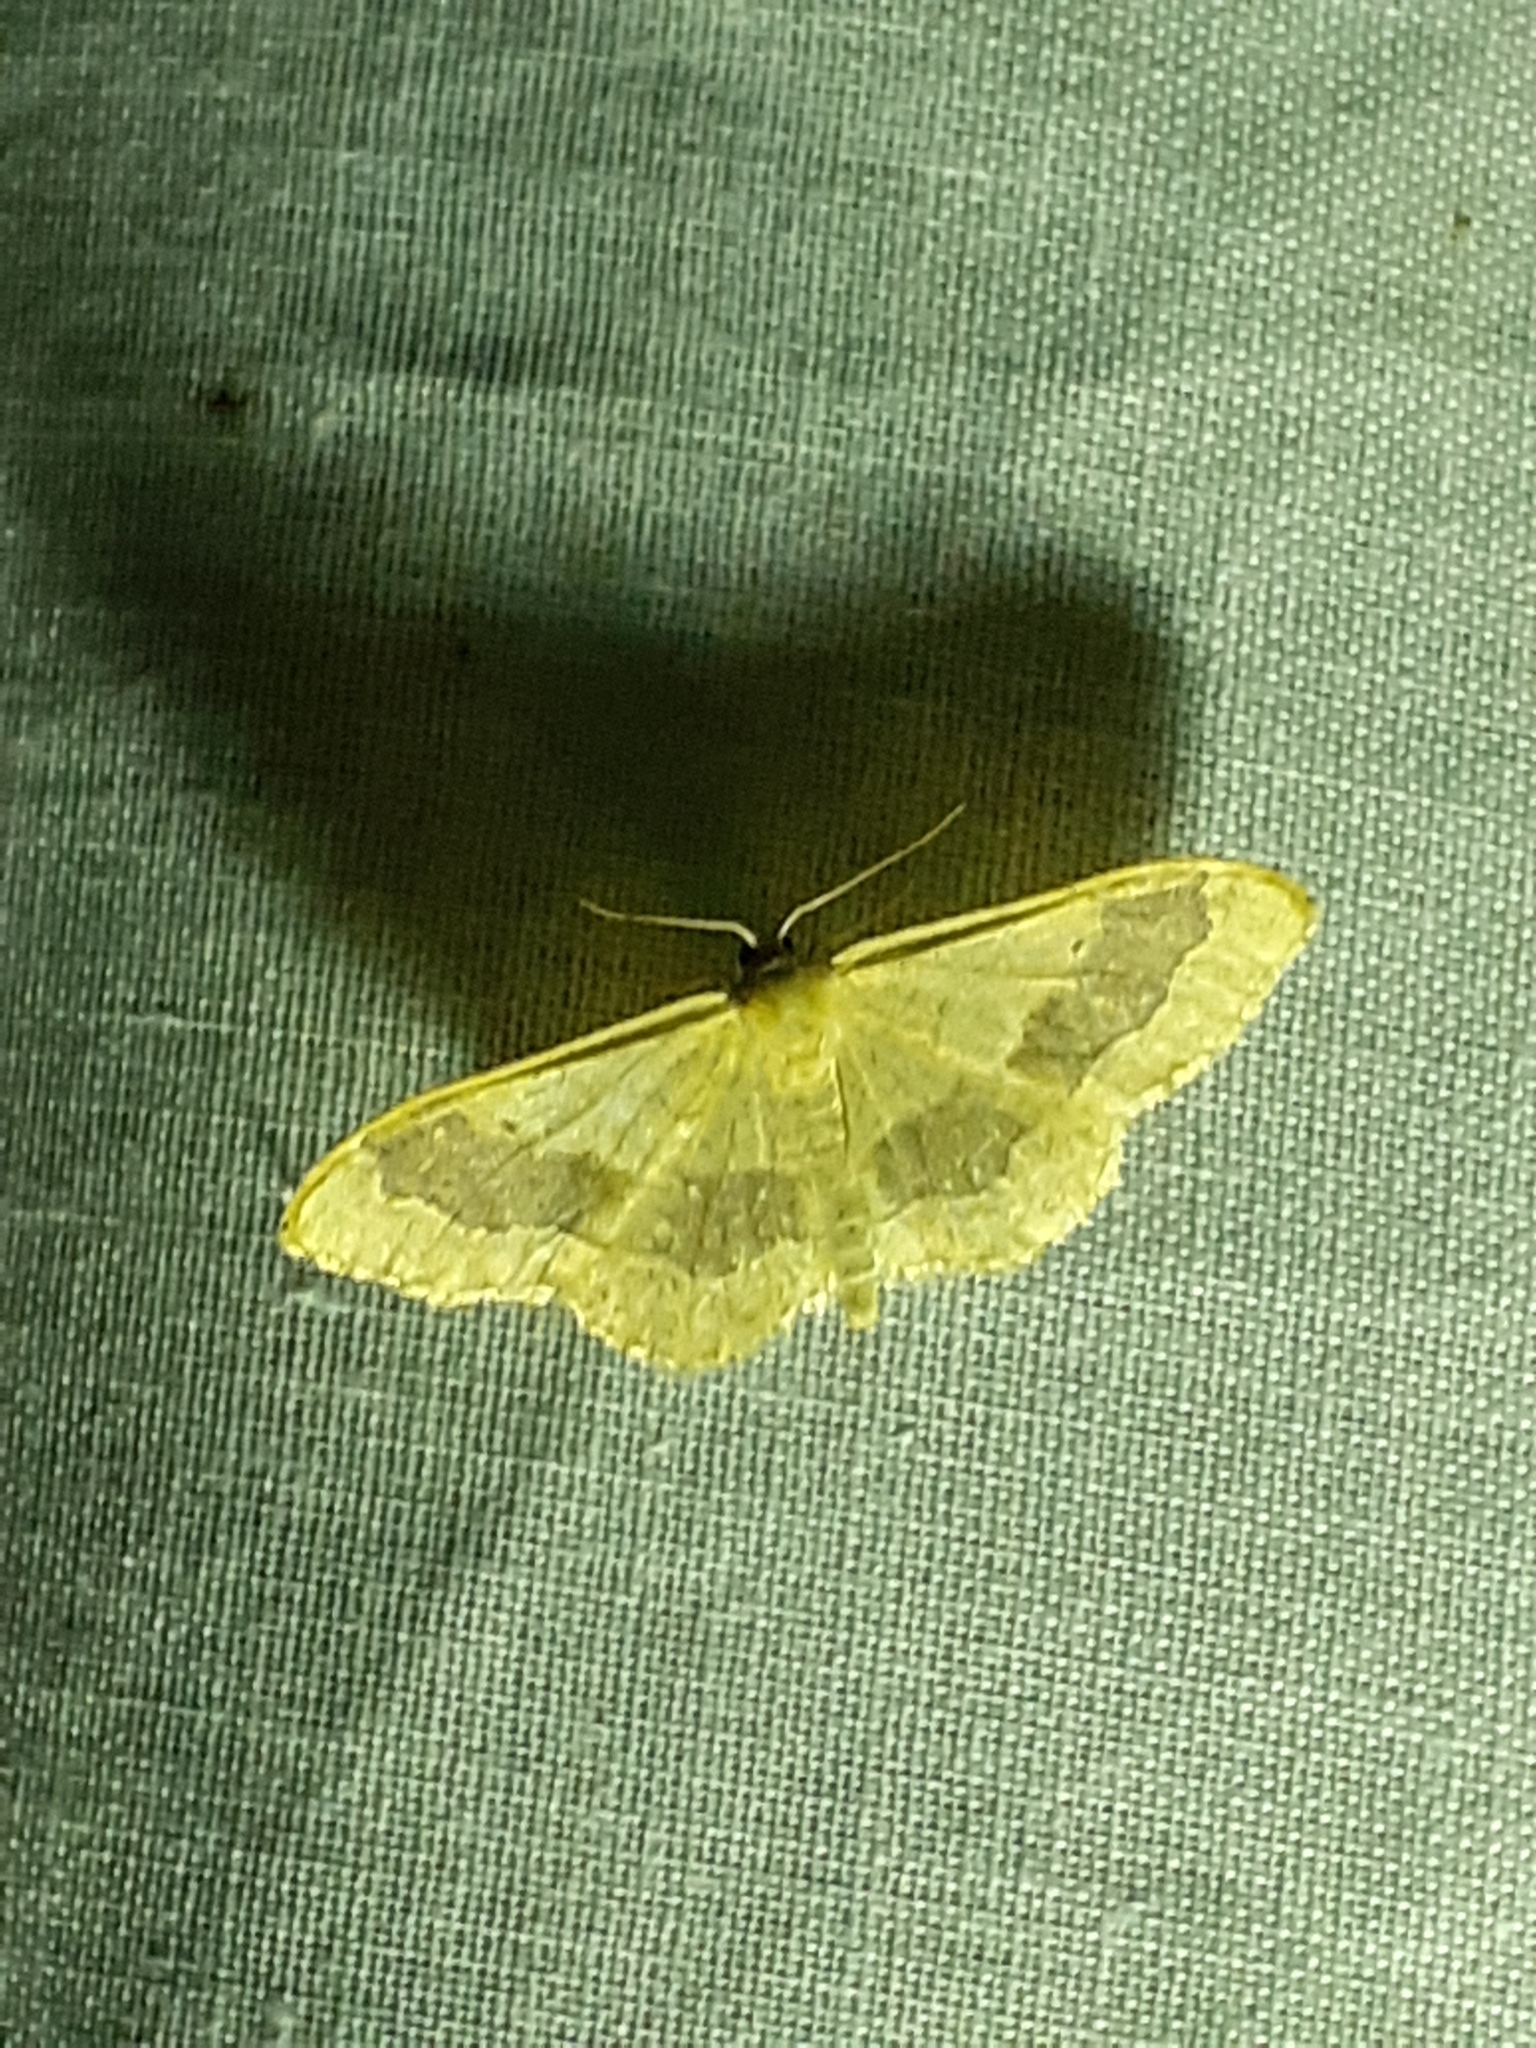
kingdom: Animalia
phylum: Arthropoda
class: Insecta
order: Lepidoptera
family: Geometridae
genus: Idaea
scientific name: Idaea aversata
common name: Riband wave
